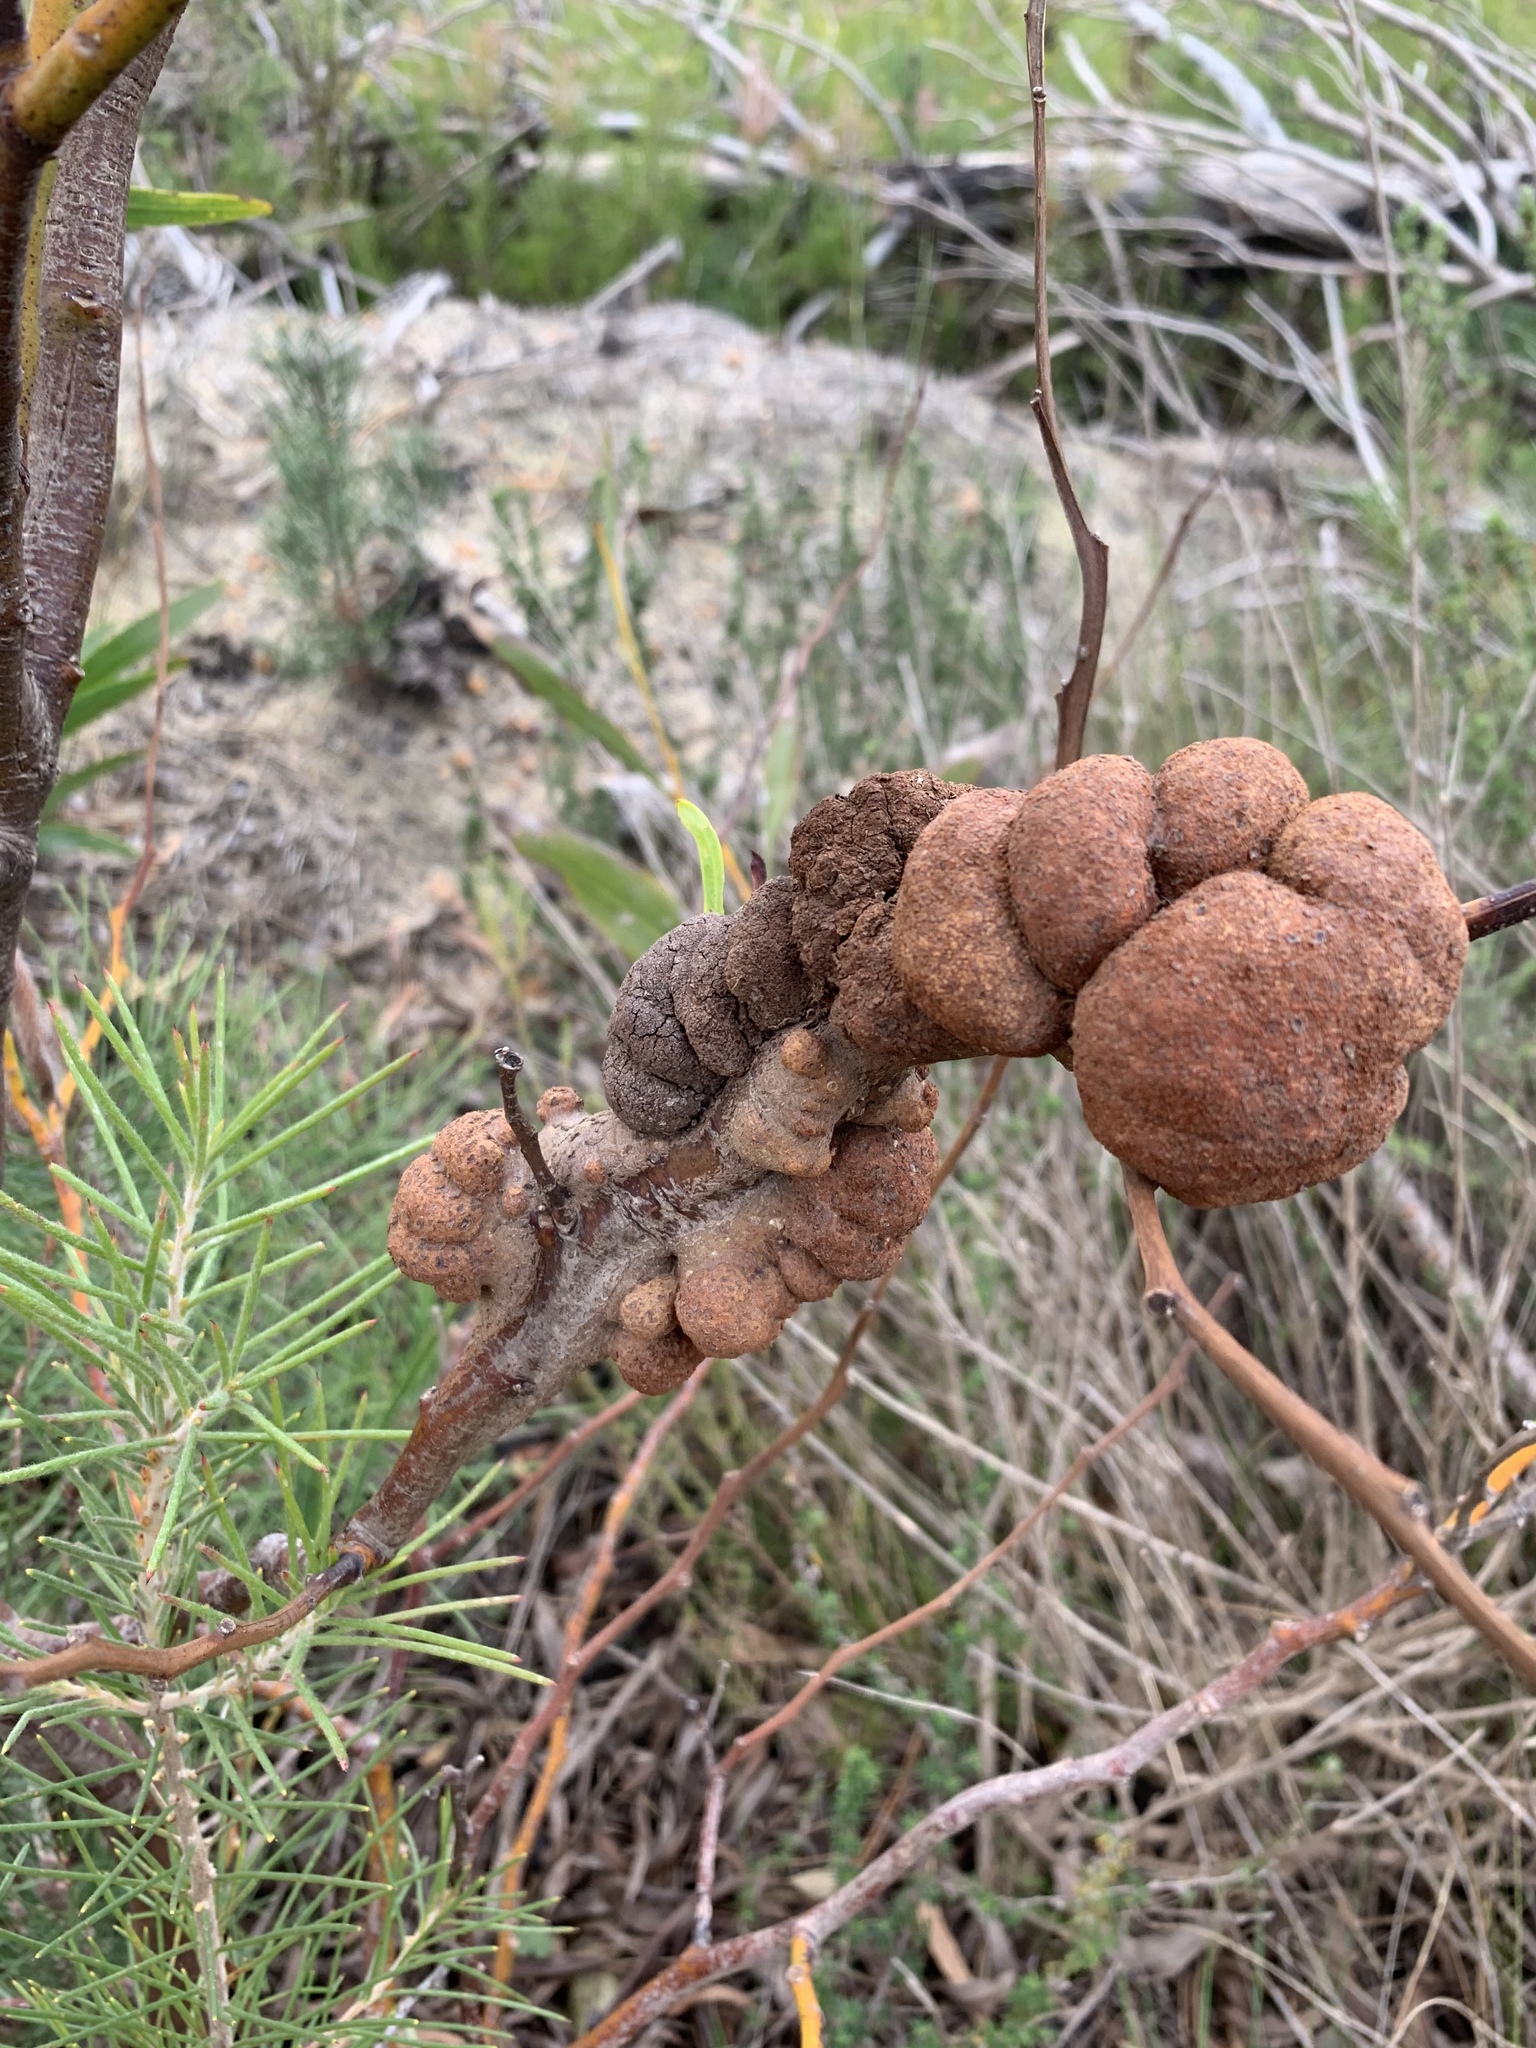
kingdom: Fungi
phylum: Basidiomycota
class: Pucciniomycetes
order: Pucciniales
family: Uromycladiaceae
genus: Uromycladium
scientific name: Uromycladium morrisii
